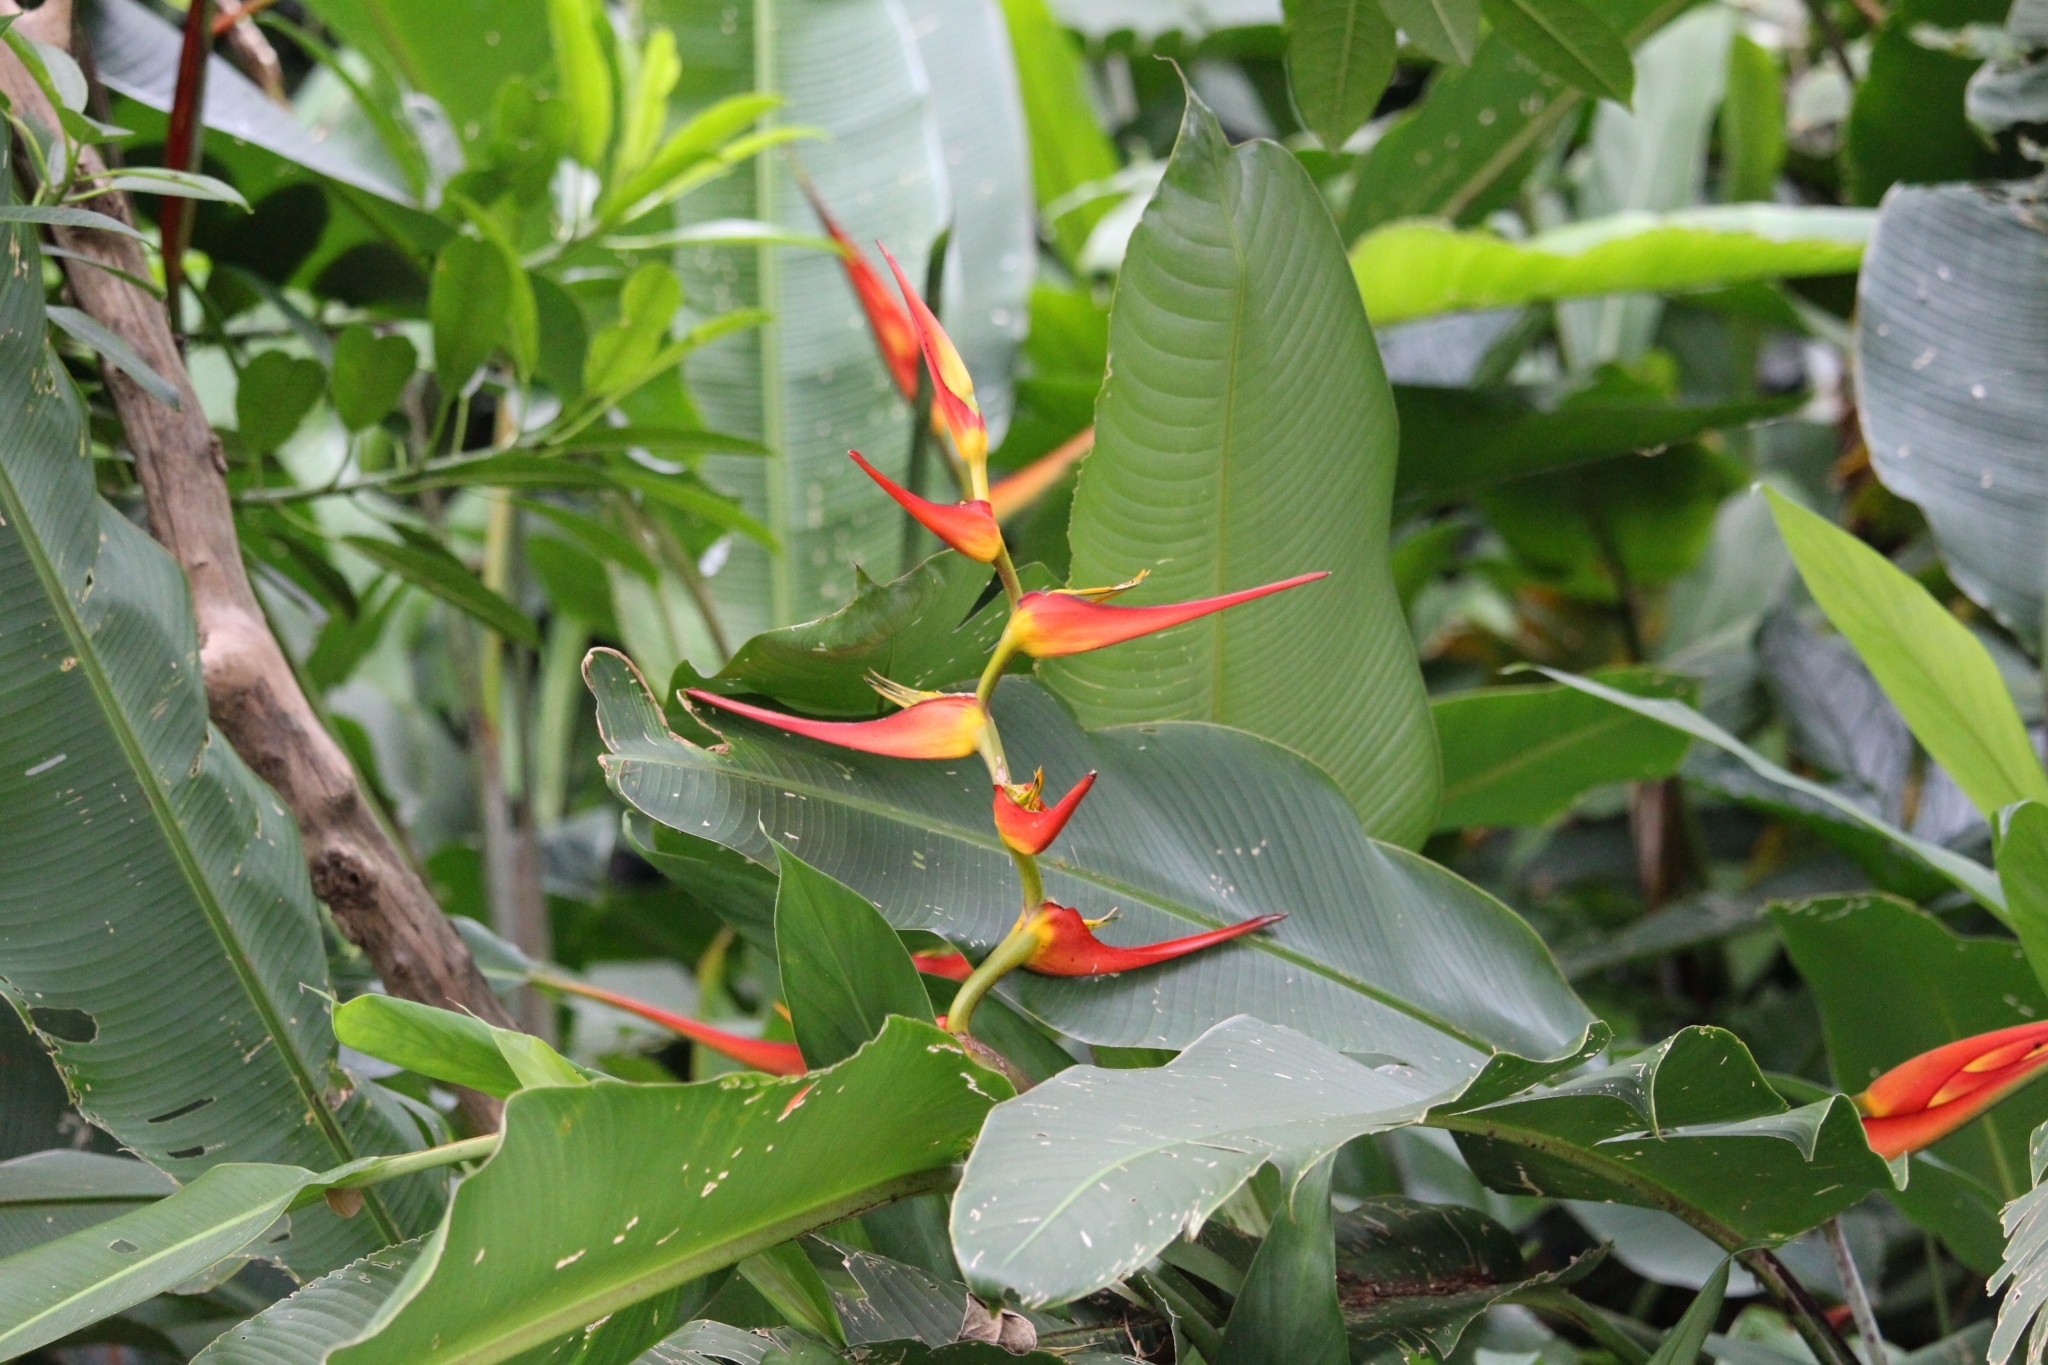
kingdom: Plantae
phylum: Tracheophyta
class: Liliopsida
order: Zingiberales
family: Heliconiaceae
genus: Heliconia
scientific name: Heliconia latispatha
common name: Expanded lobsterclaw
